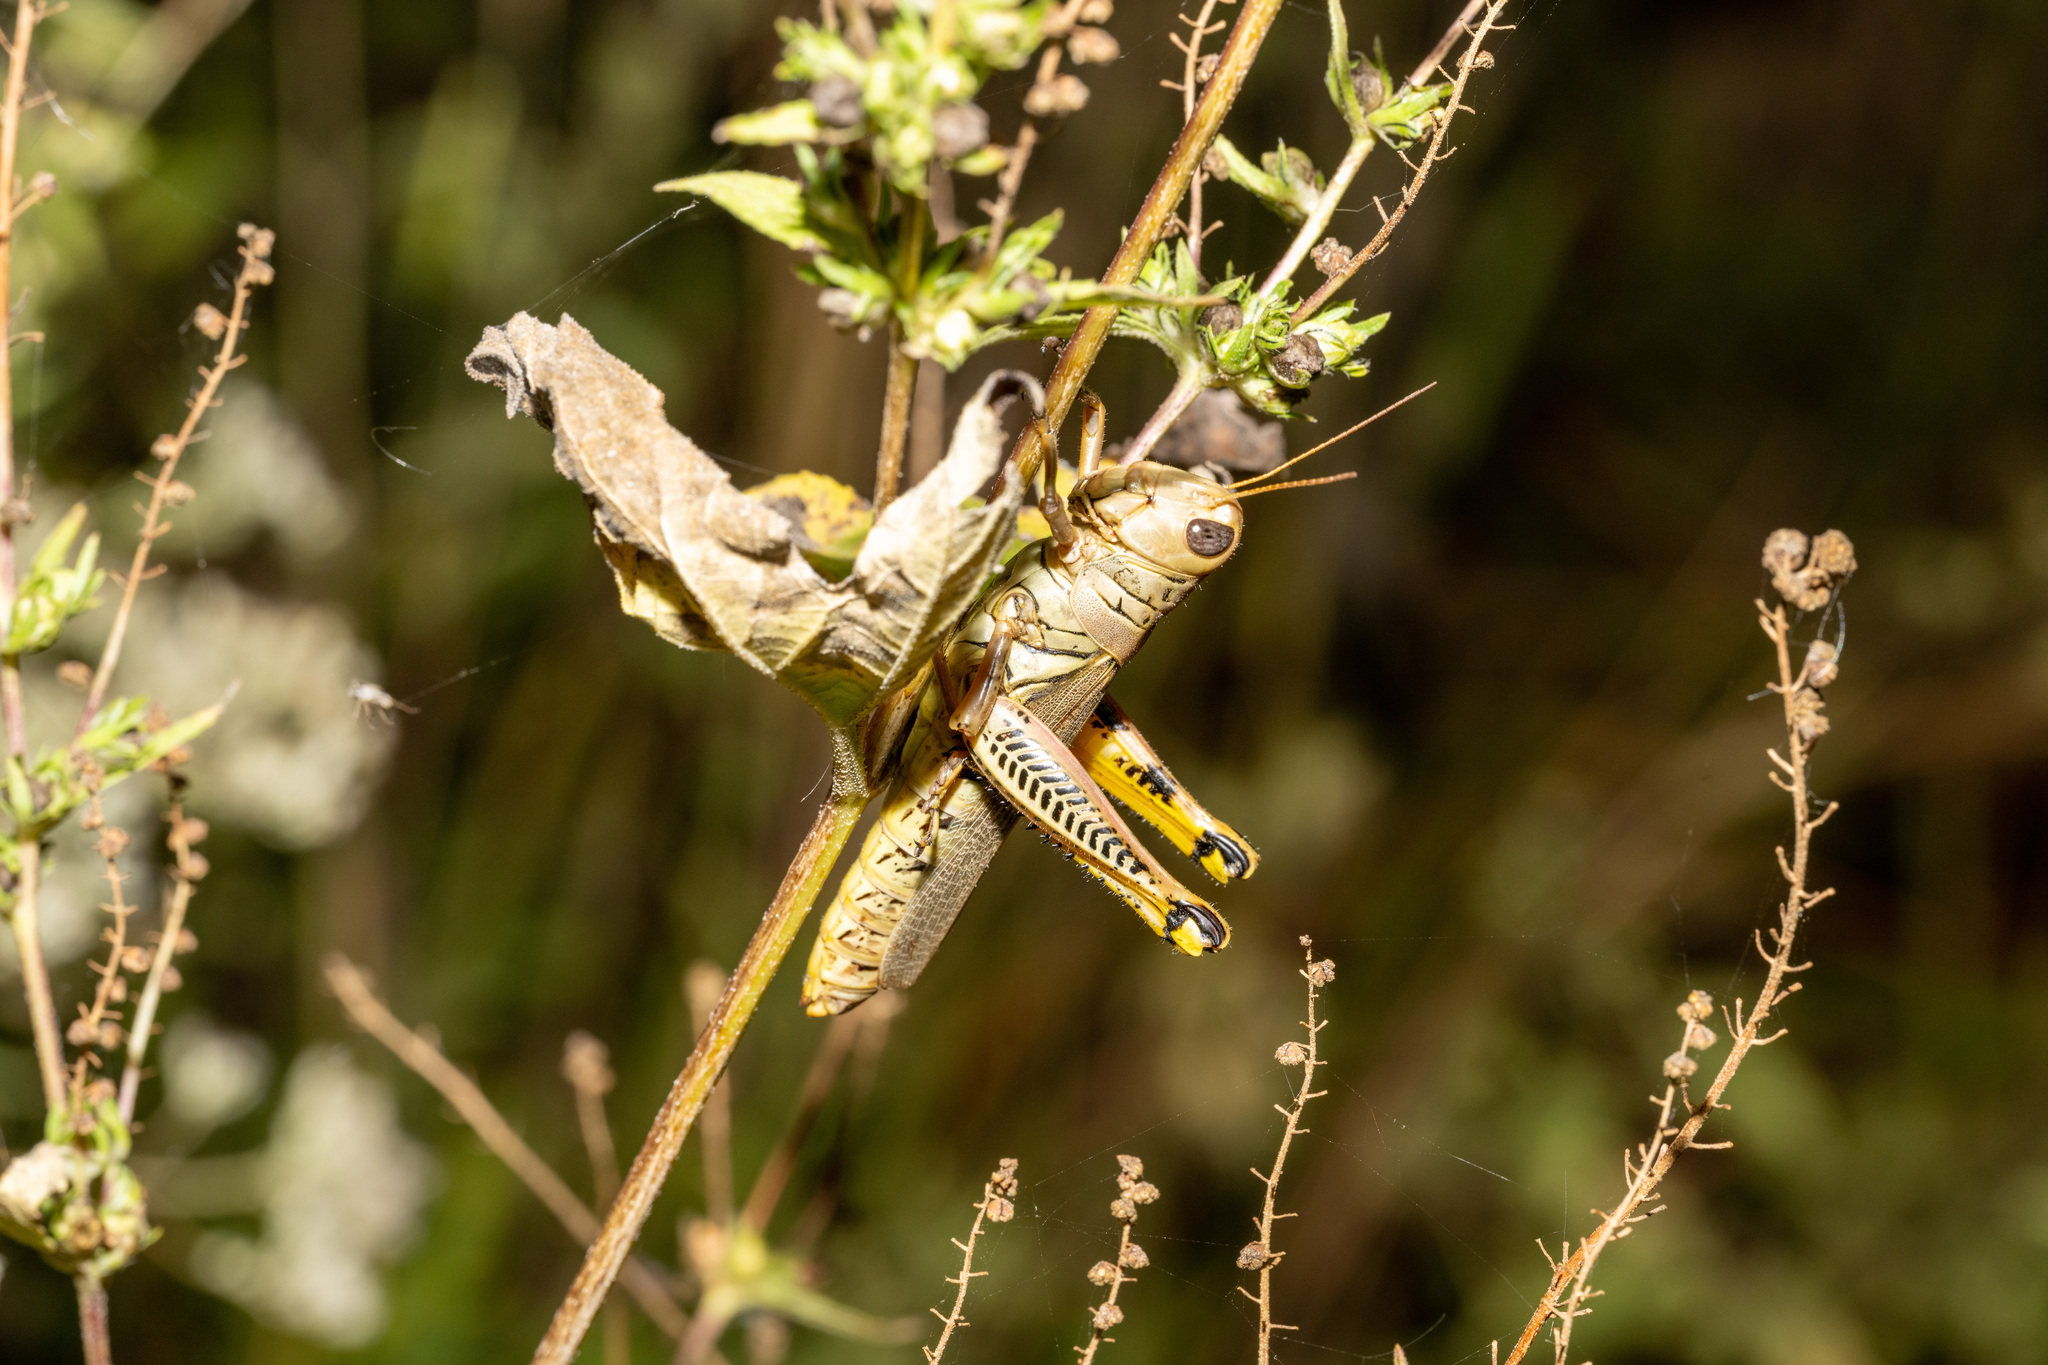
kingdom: Animalia
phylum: Arthropoda
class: Insecta
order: Orthoptera
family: Acrididae
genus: Melanoplus
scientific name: Melanoplus differentialis
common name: Differential grasshopper
